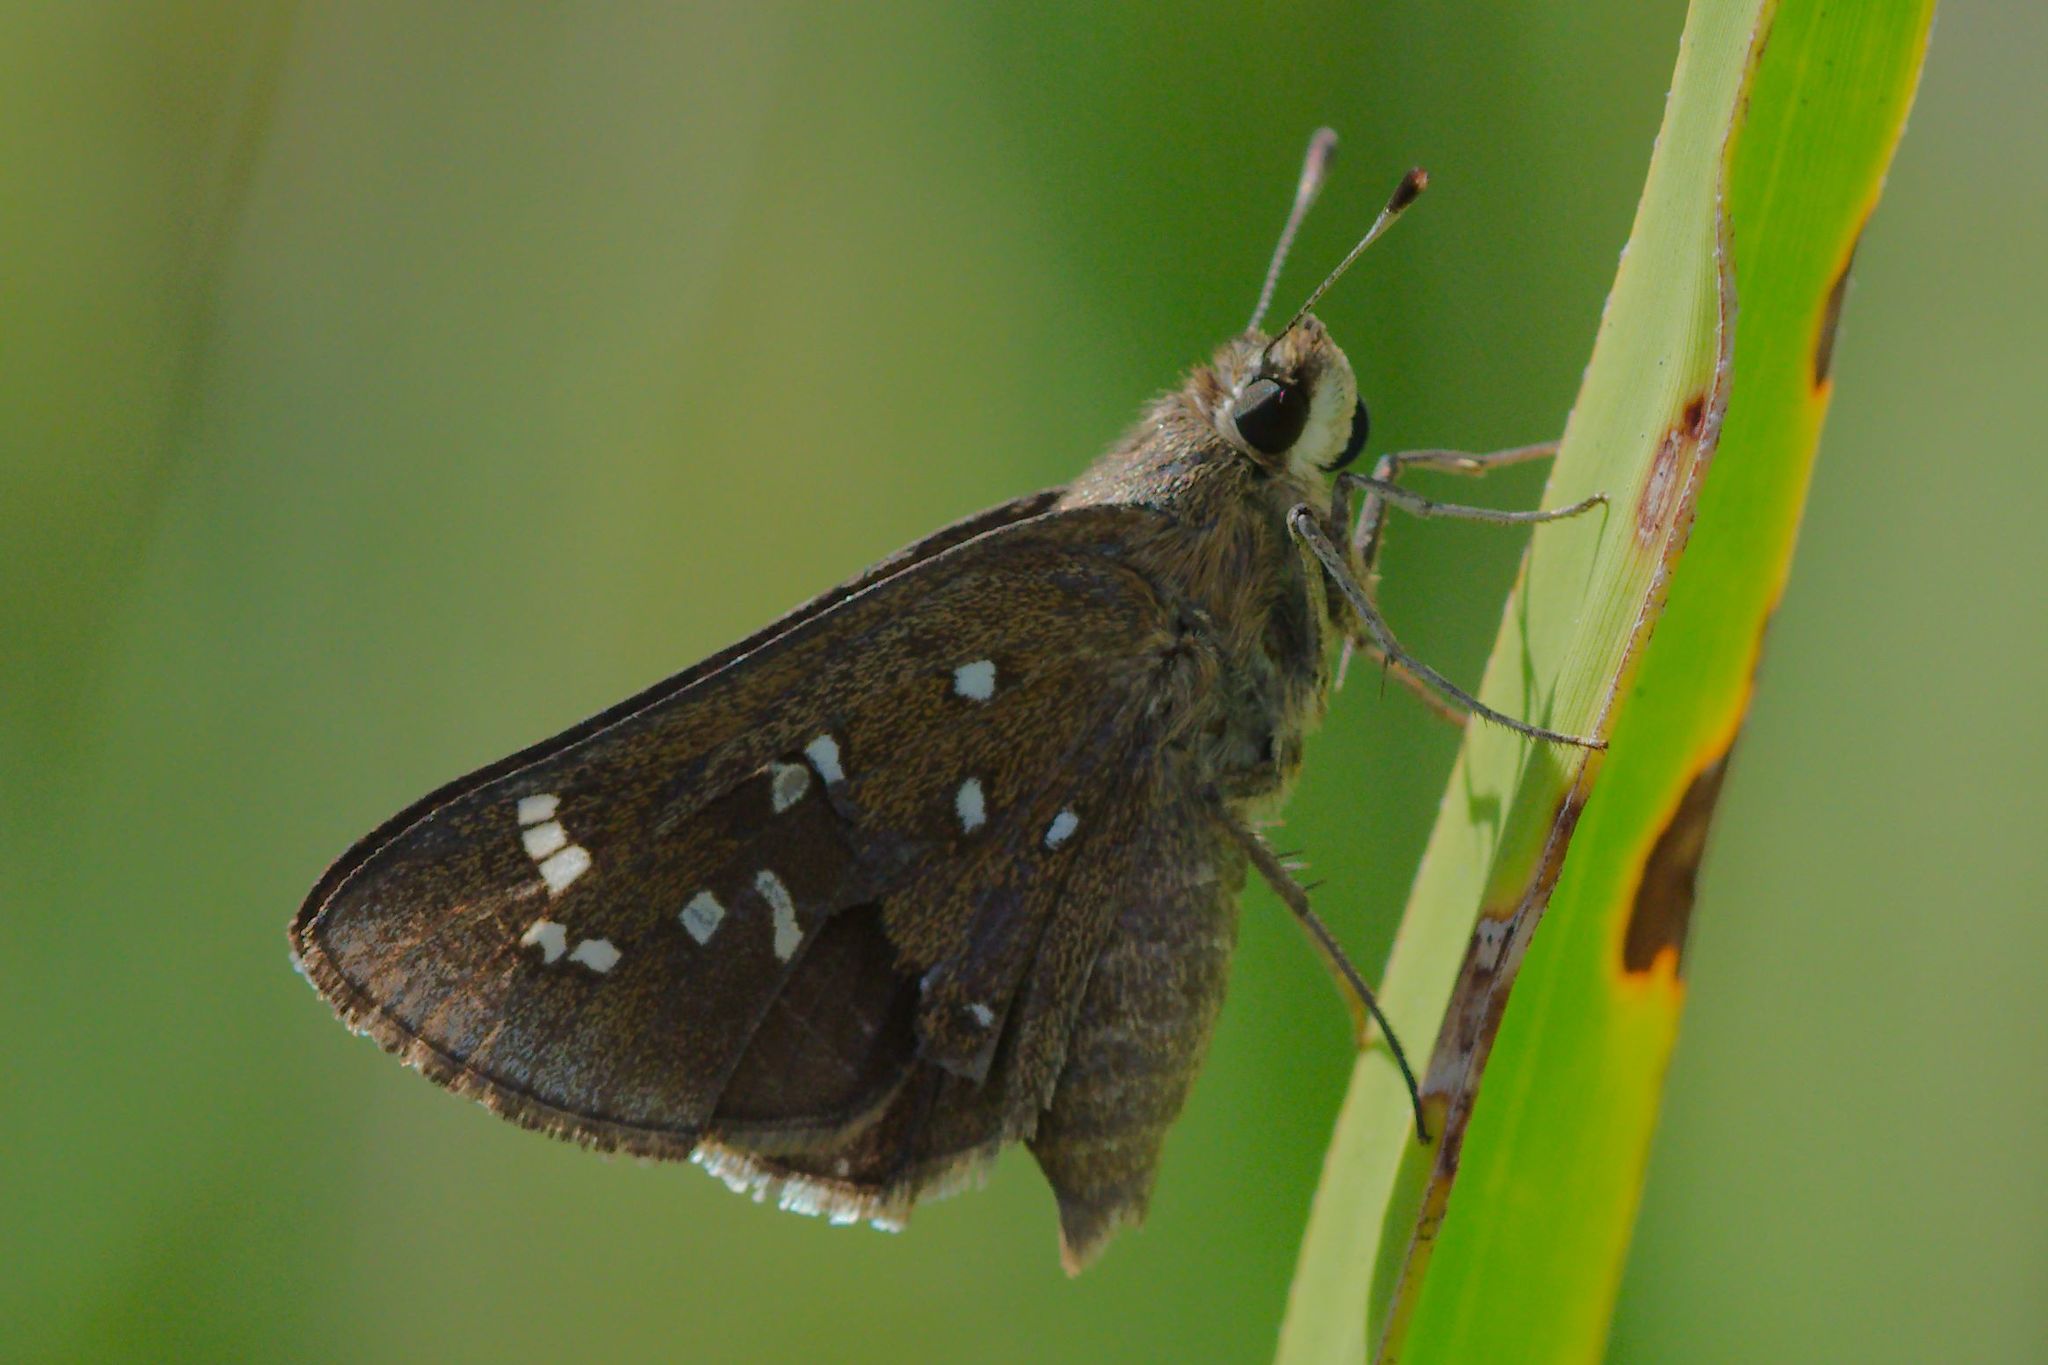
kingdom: Animalia
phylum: Arthropoda
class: Insecta
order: Lepidoptera
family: Hesperiidae
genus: Atrytonopsis
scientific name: Atrytonopsis loammi
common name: Loammi skipper
